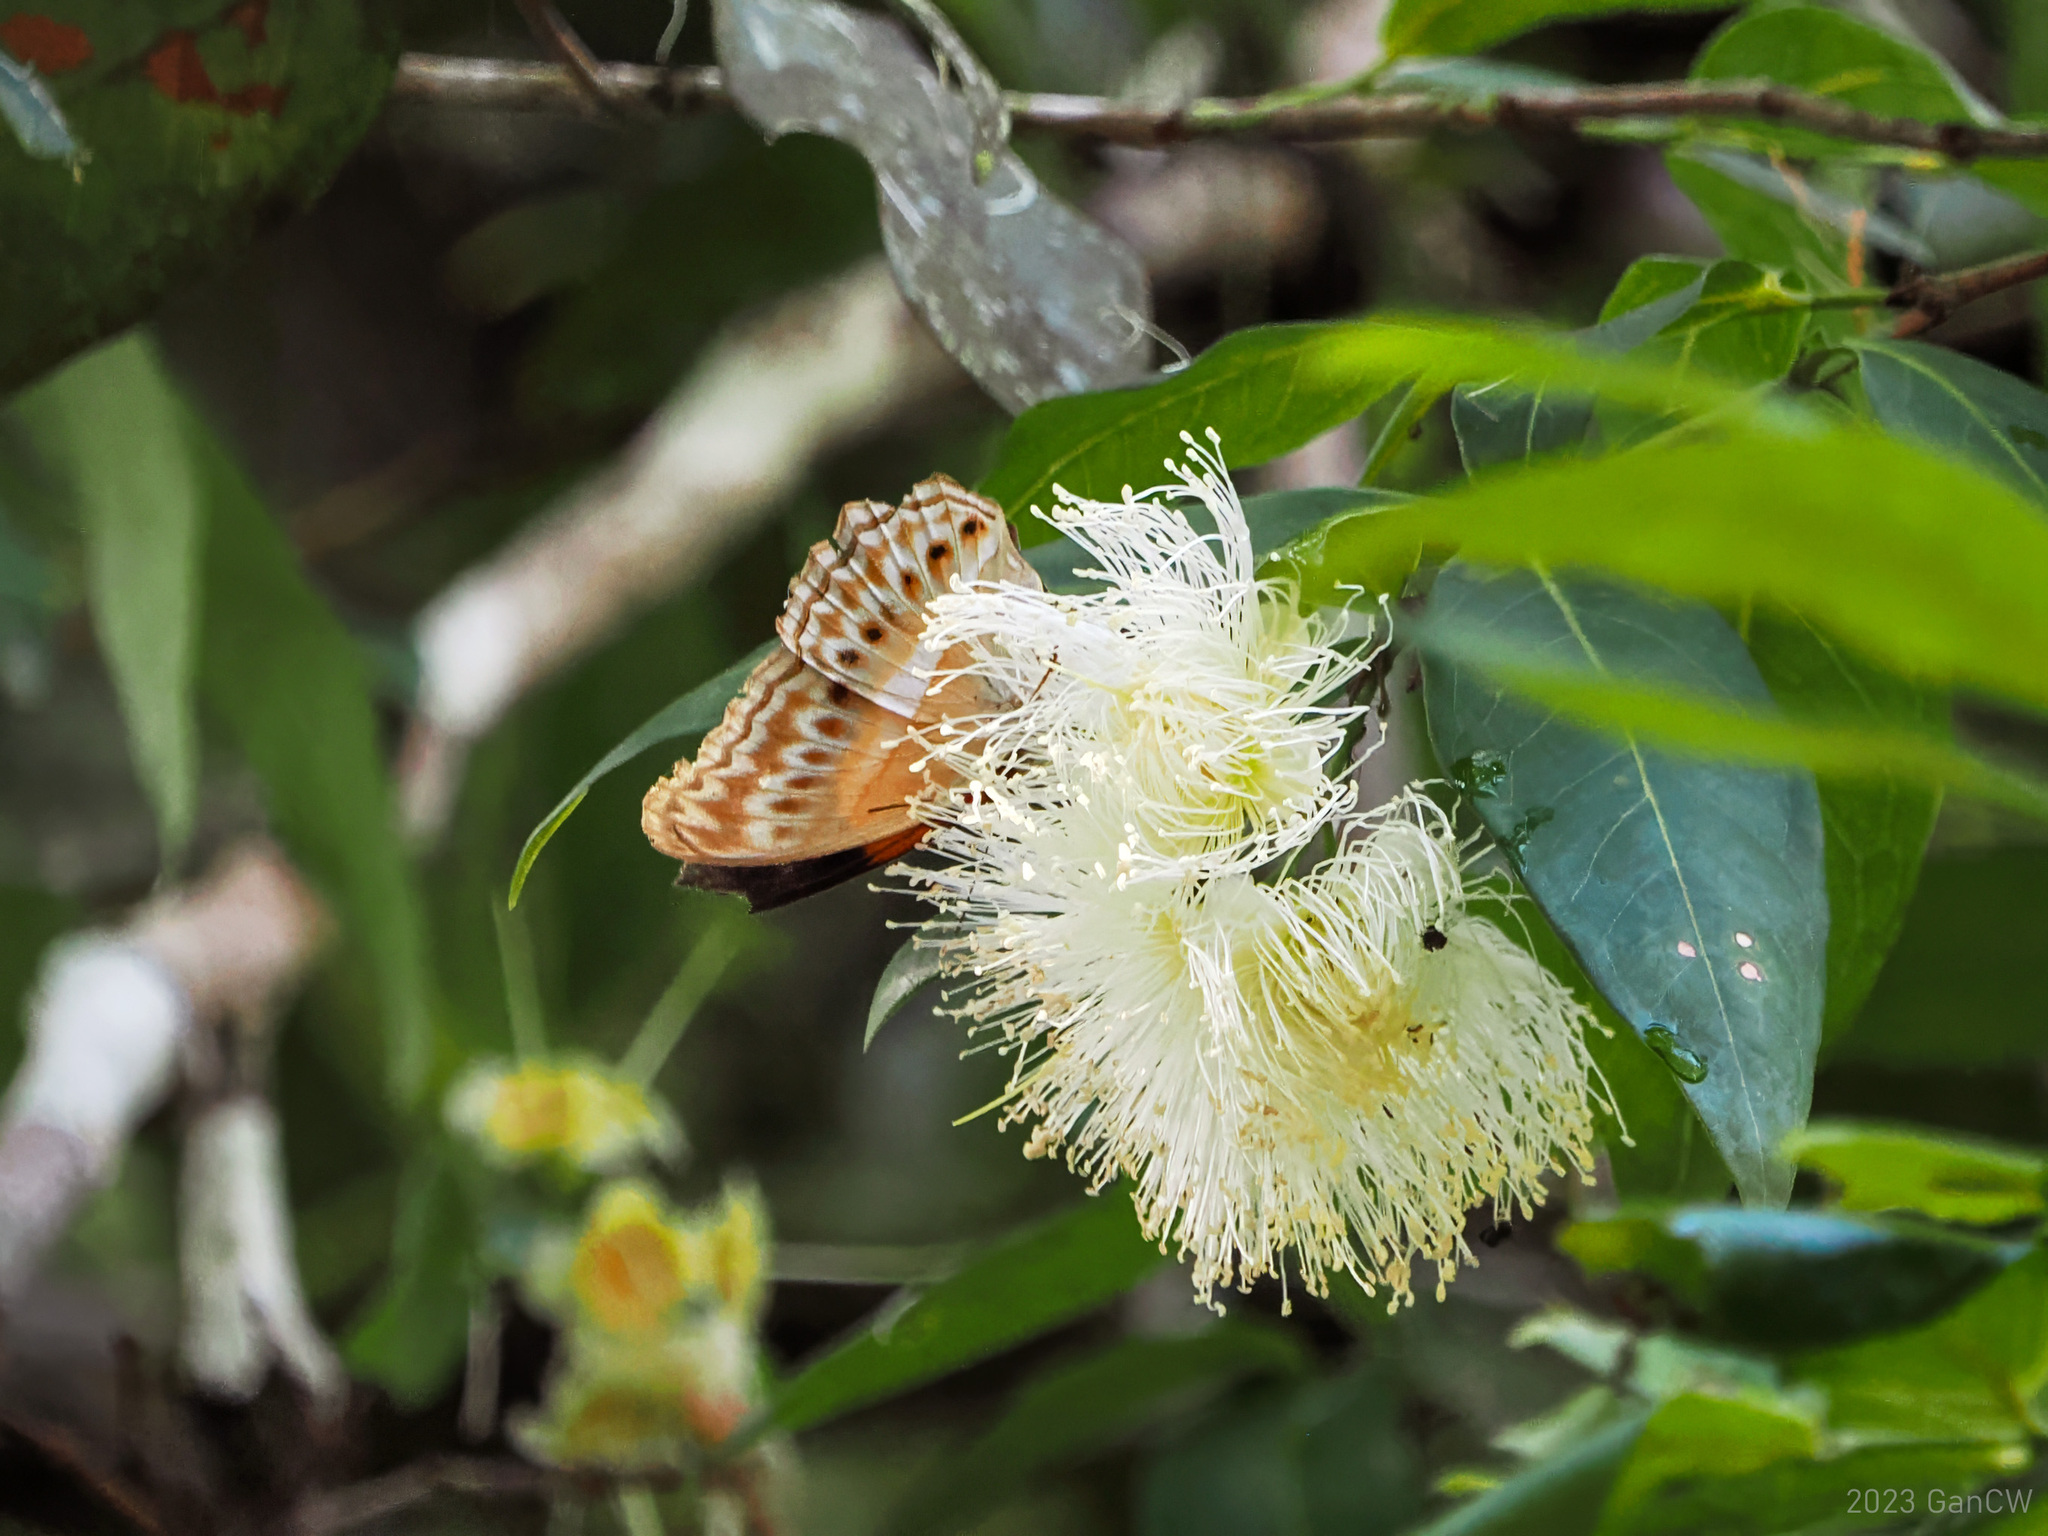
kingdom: Animalia
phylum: Arthropoda
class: Insecta
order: Lepidoptera
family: Nymphalidae
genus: Cirrochroa
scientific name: Cirrochroa semiramis
